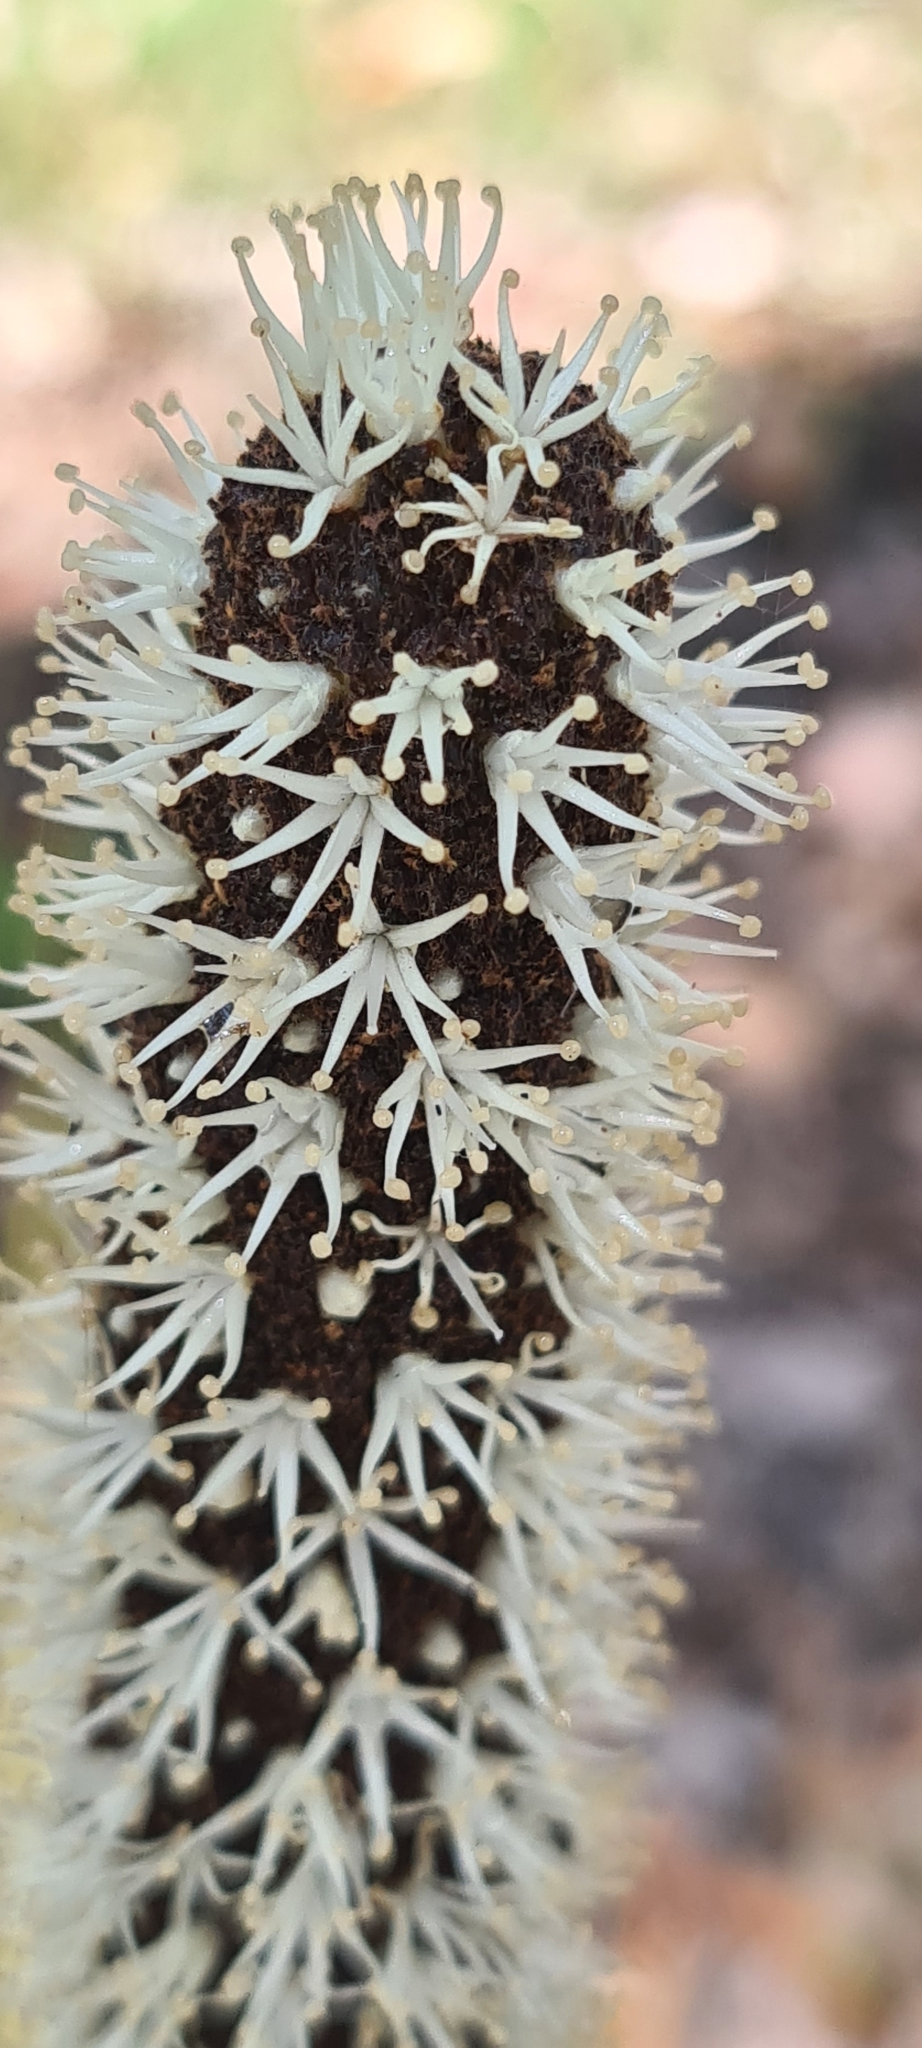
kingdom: Plantae
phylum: Tracheophyta
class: Liliopsida
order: Asparagales
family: Asphodelaceae
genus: Xanthorrhoea
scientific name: Xanthorrhoea concava
